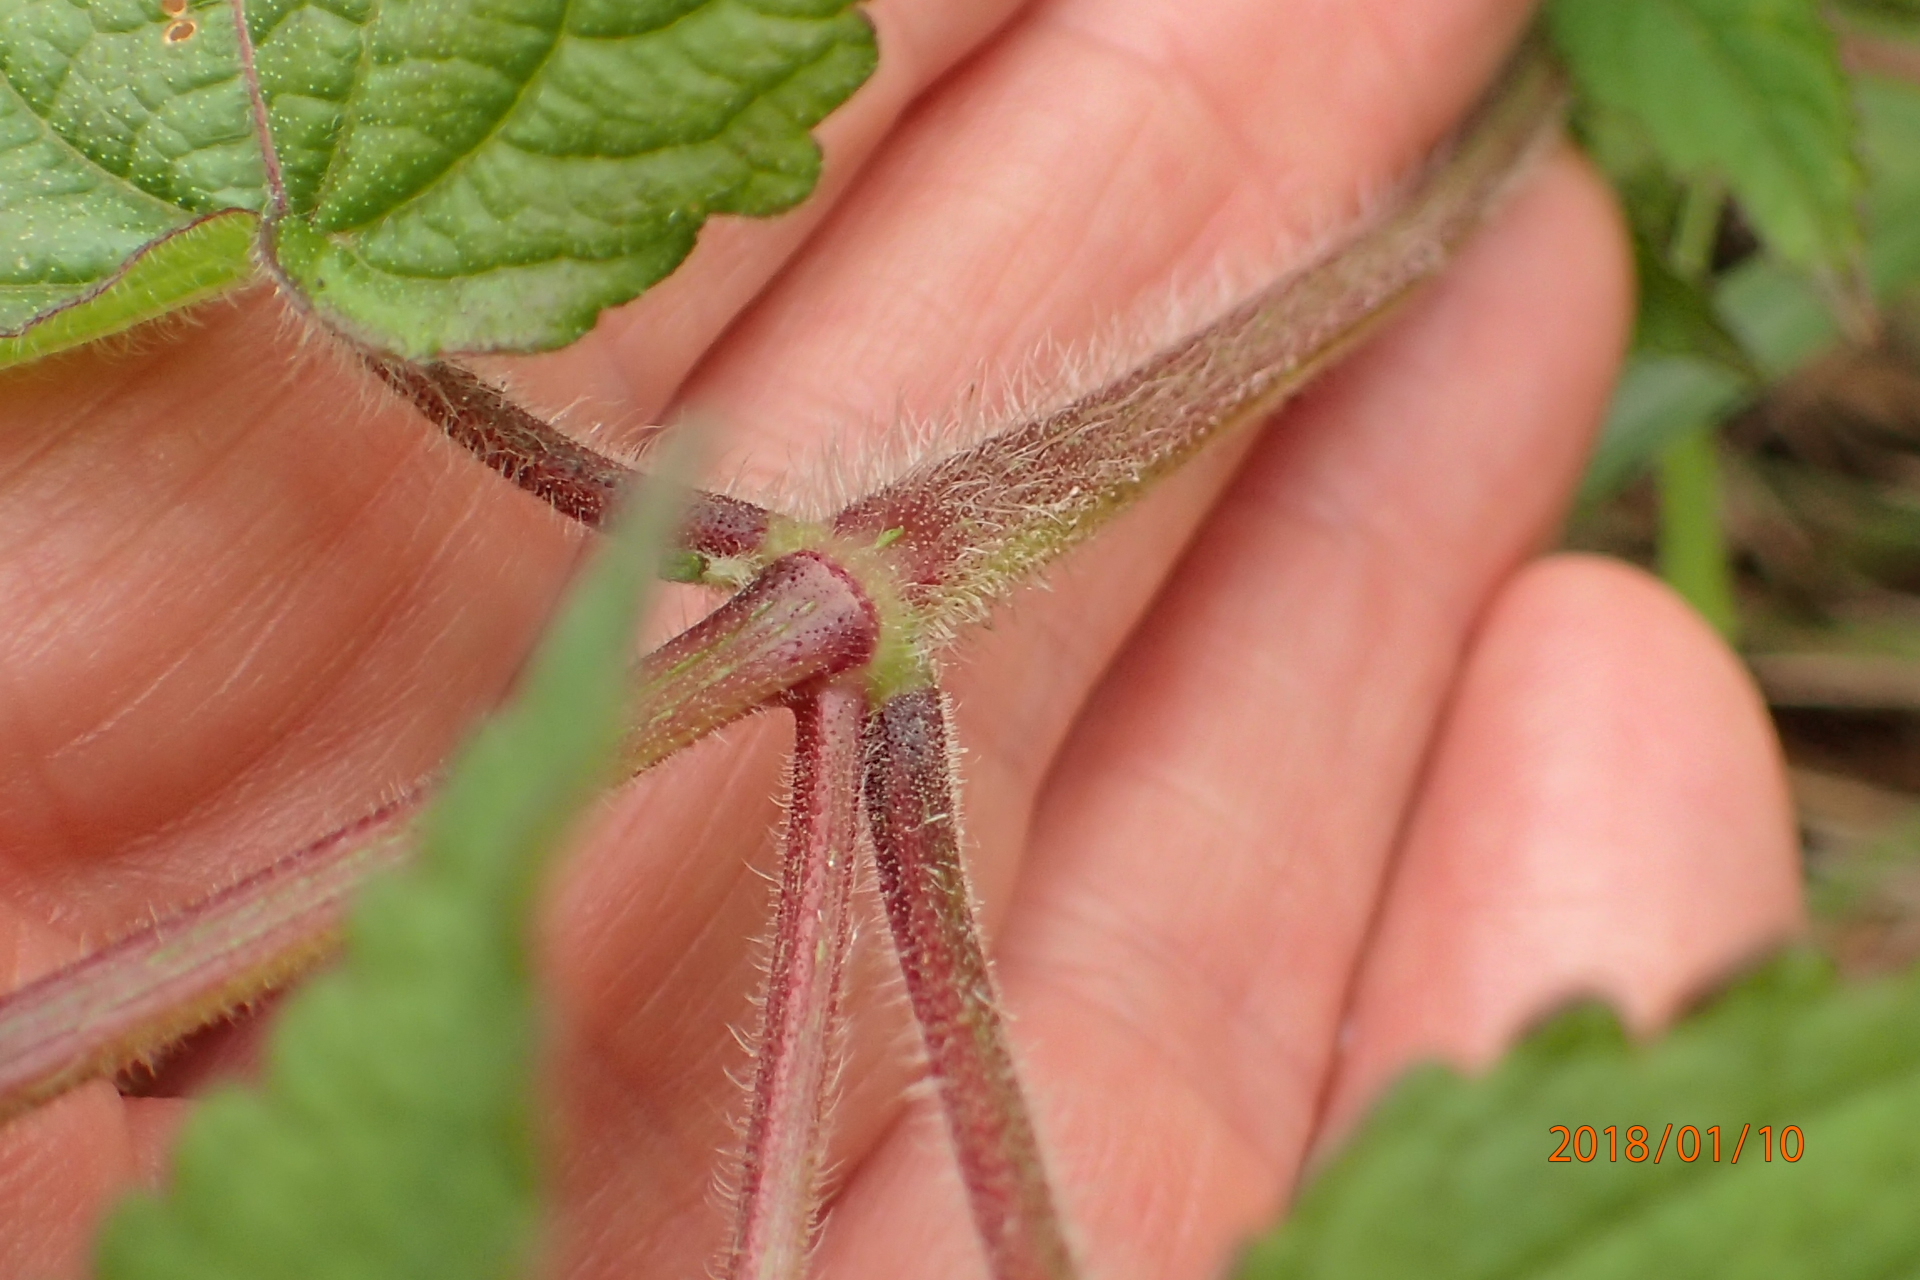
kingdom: Plantae
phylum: Tracheophyta
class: Magnoliopsida
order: Lamiales
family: Lamiaceae
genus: Equilabium
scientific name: Equilabium laxiflorum
